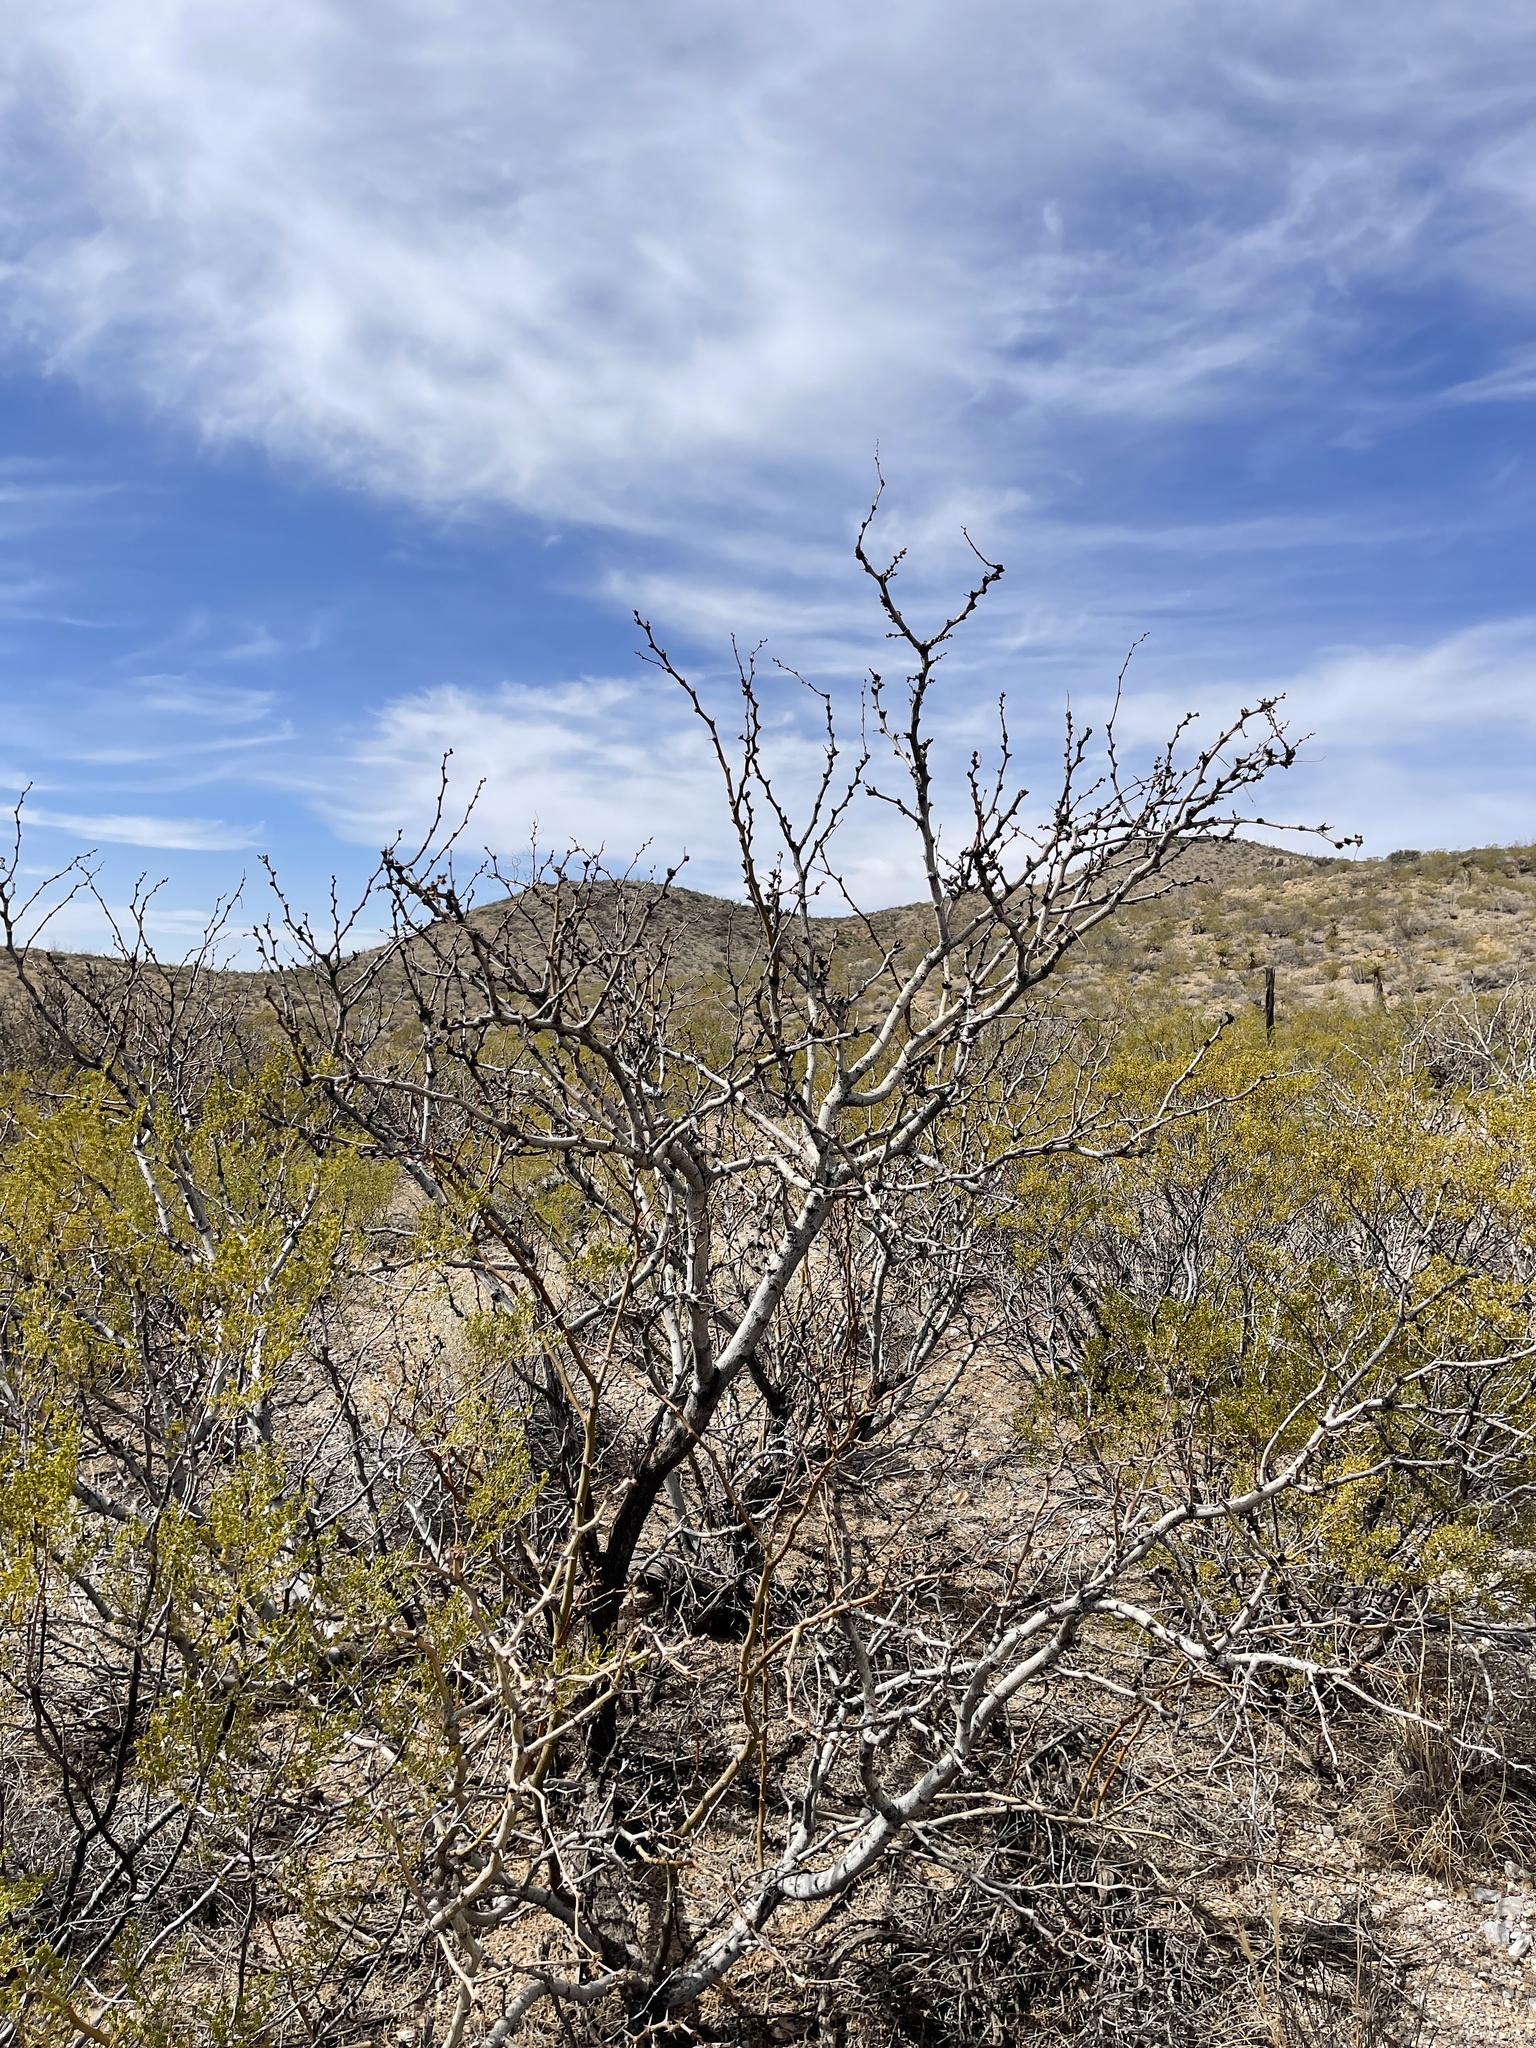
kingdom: Plantae
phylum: Tracheophyta
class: Magnoliopsida
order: Fabales
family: Fabaceae
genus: Prosopis
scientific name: Prosopis glandulosa
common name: Honey mesquite
